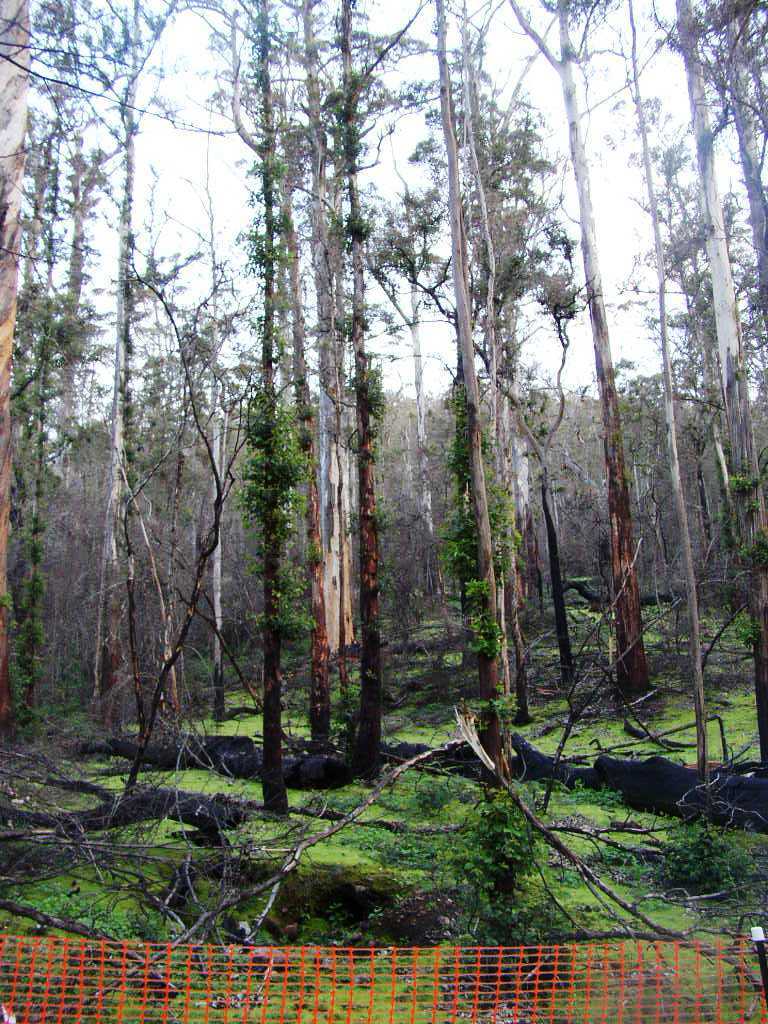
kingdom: Plantae
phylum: Tracheophyta
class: Magnoliopsida
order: Myrtales
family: Myrtaceae
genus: Eucalyptus
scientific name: Eucalyptus diversicolor
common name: Karri
